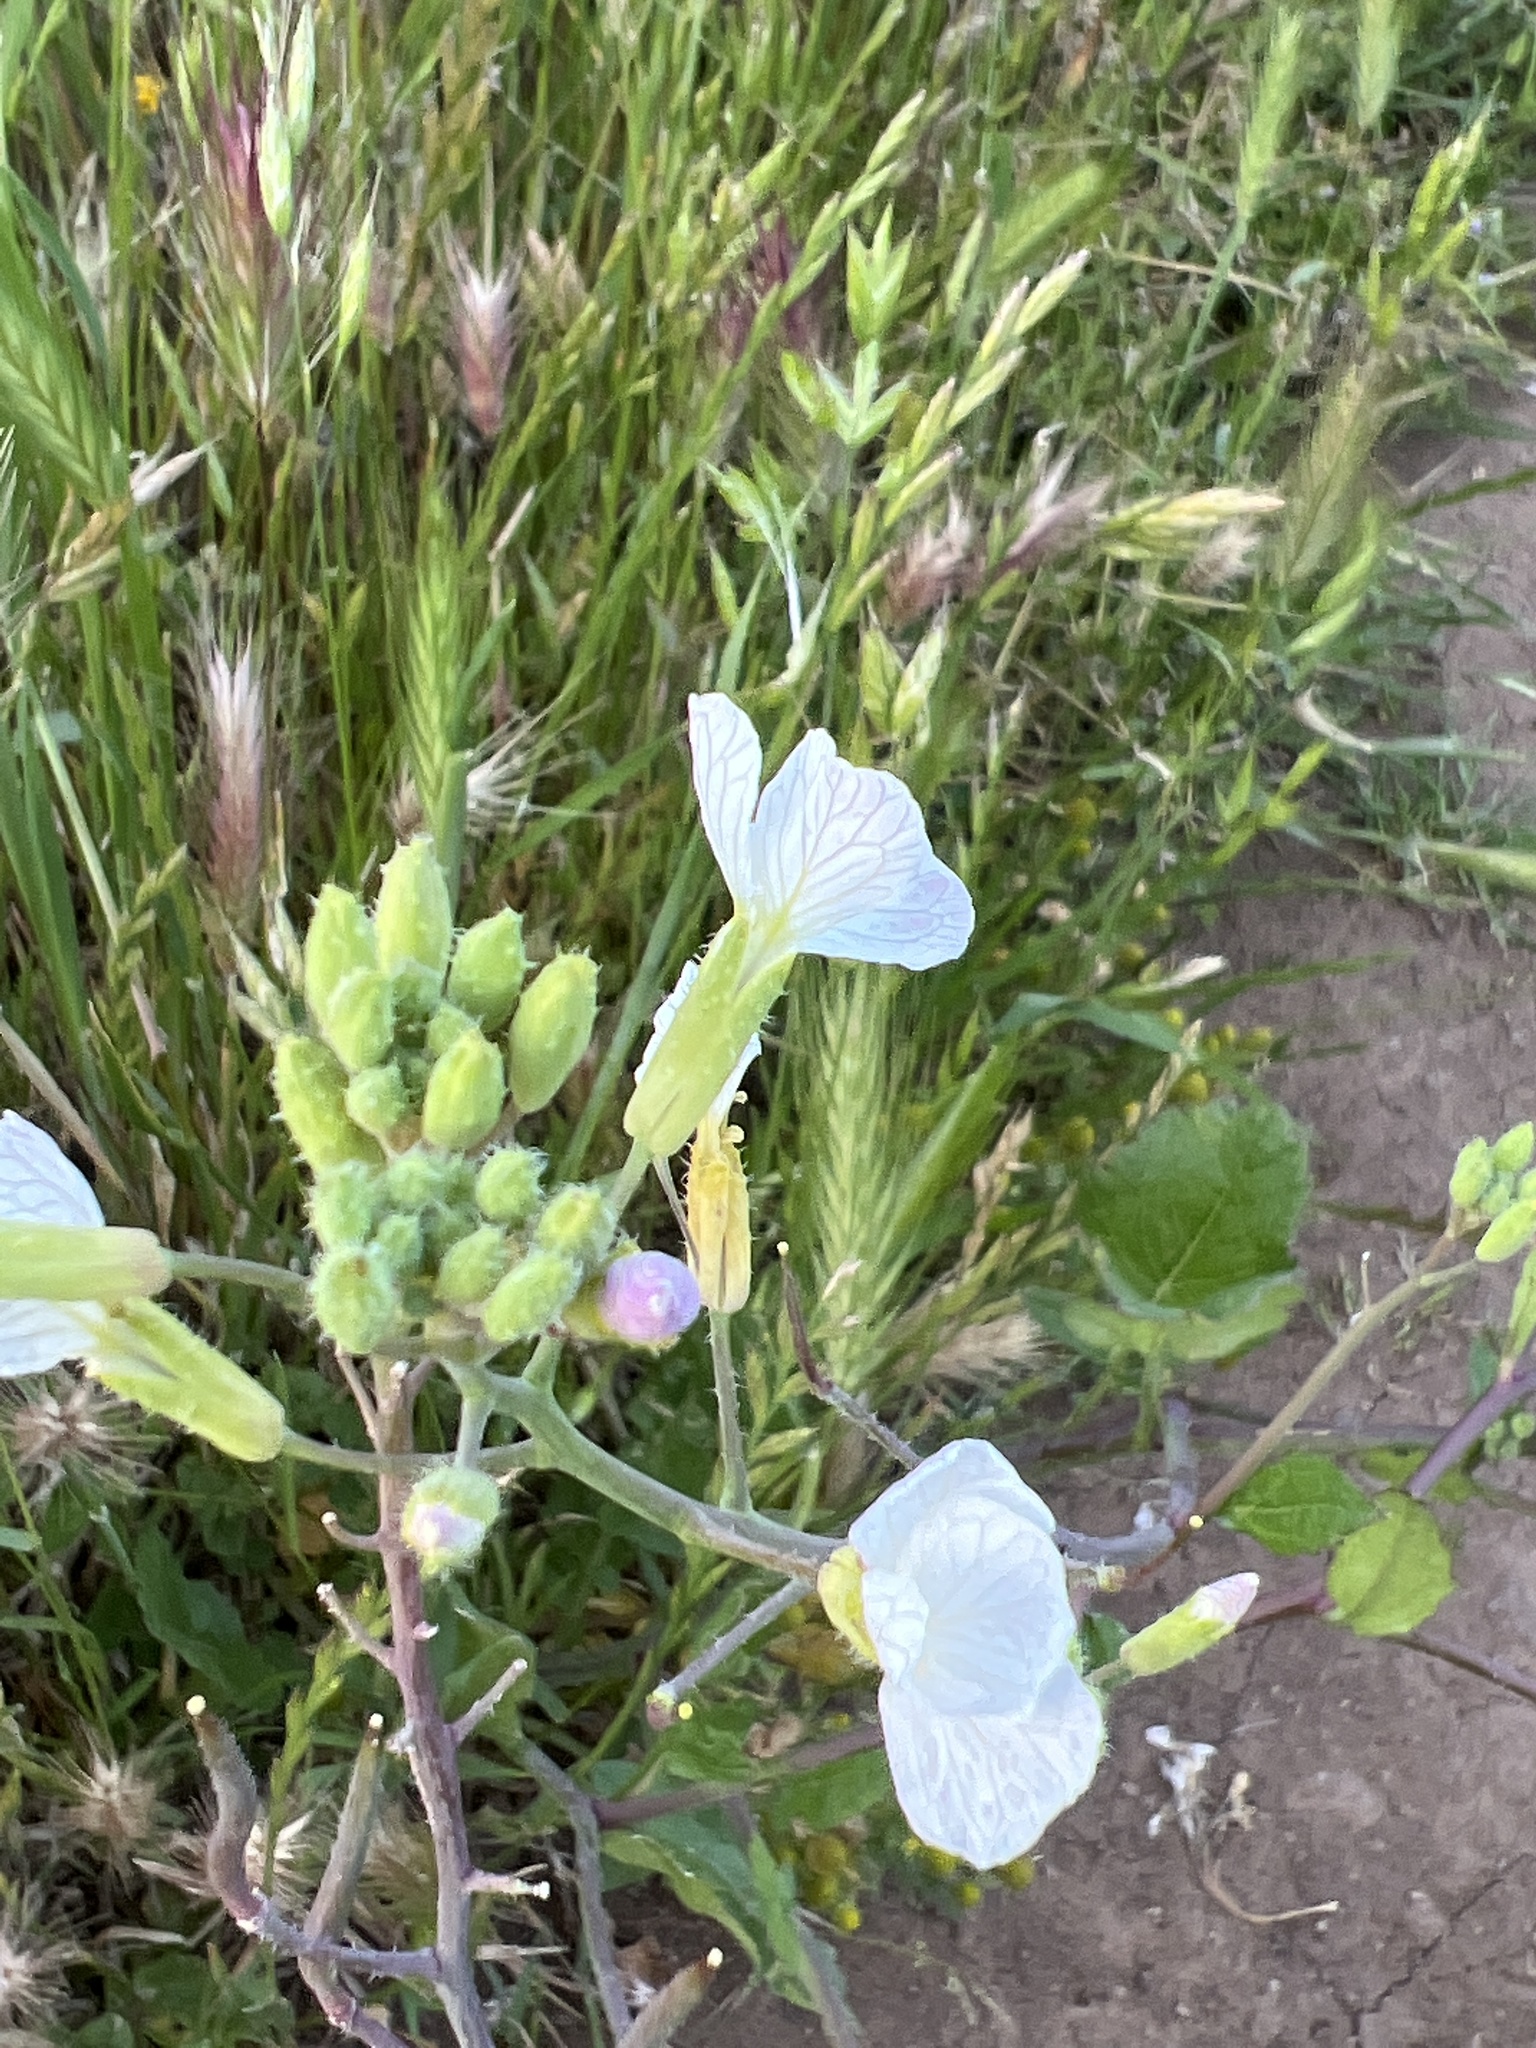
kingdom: Plantae
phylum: Tracheophyta
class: Magnoliopsida
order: Brassicales
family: Brassicaceae
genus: Raphanus
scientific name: Raphanus sativus
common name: Cultivated radish
